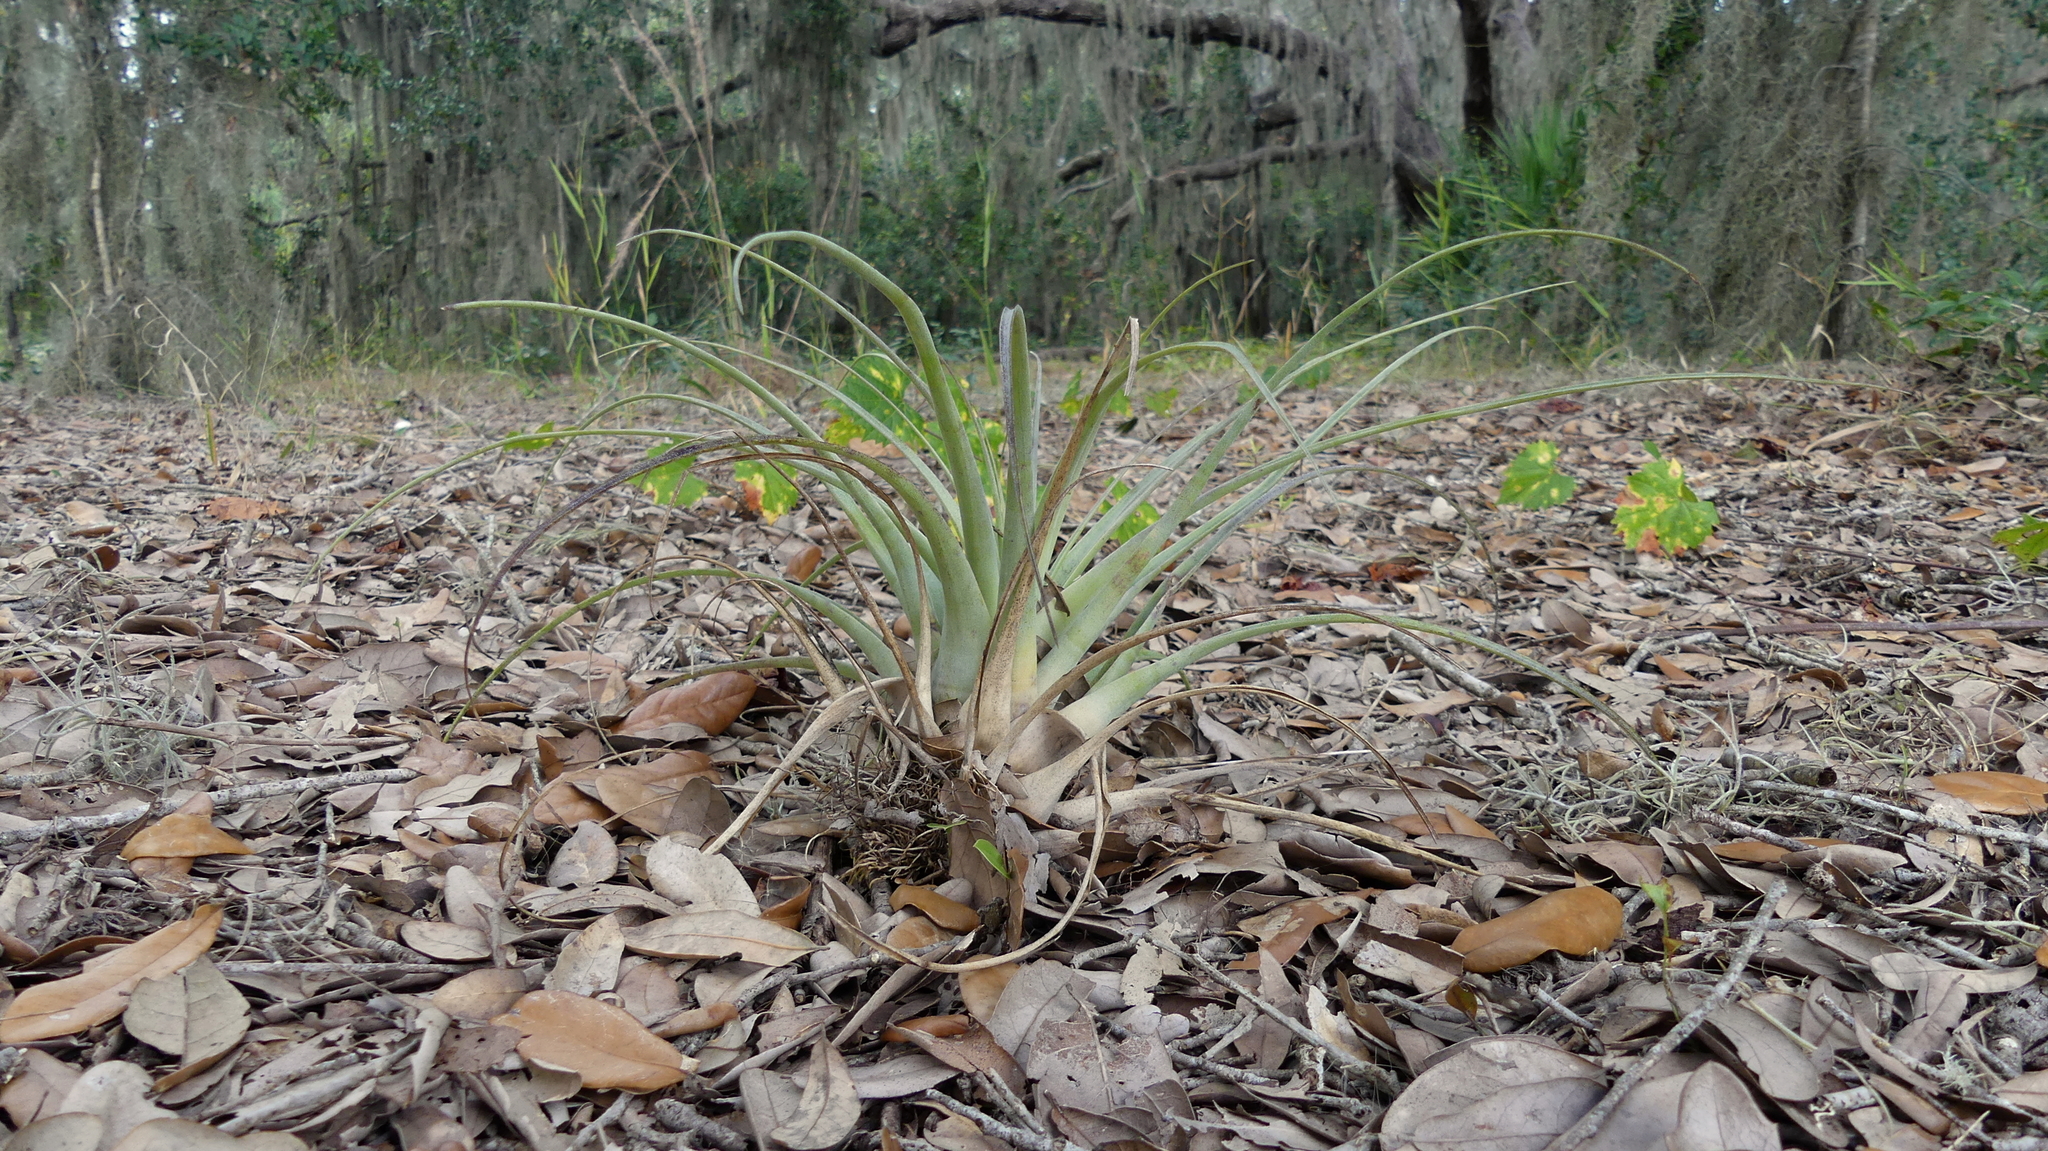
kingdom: Plantae
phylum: Tracheophyta
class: Liliopsida
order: Poales
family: Bromeliaceae
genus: Tillandsia
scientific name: Tillandsia utriculata
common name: Wild pine
